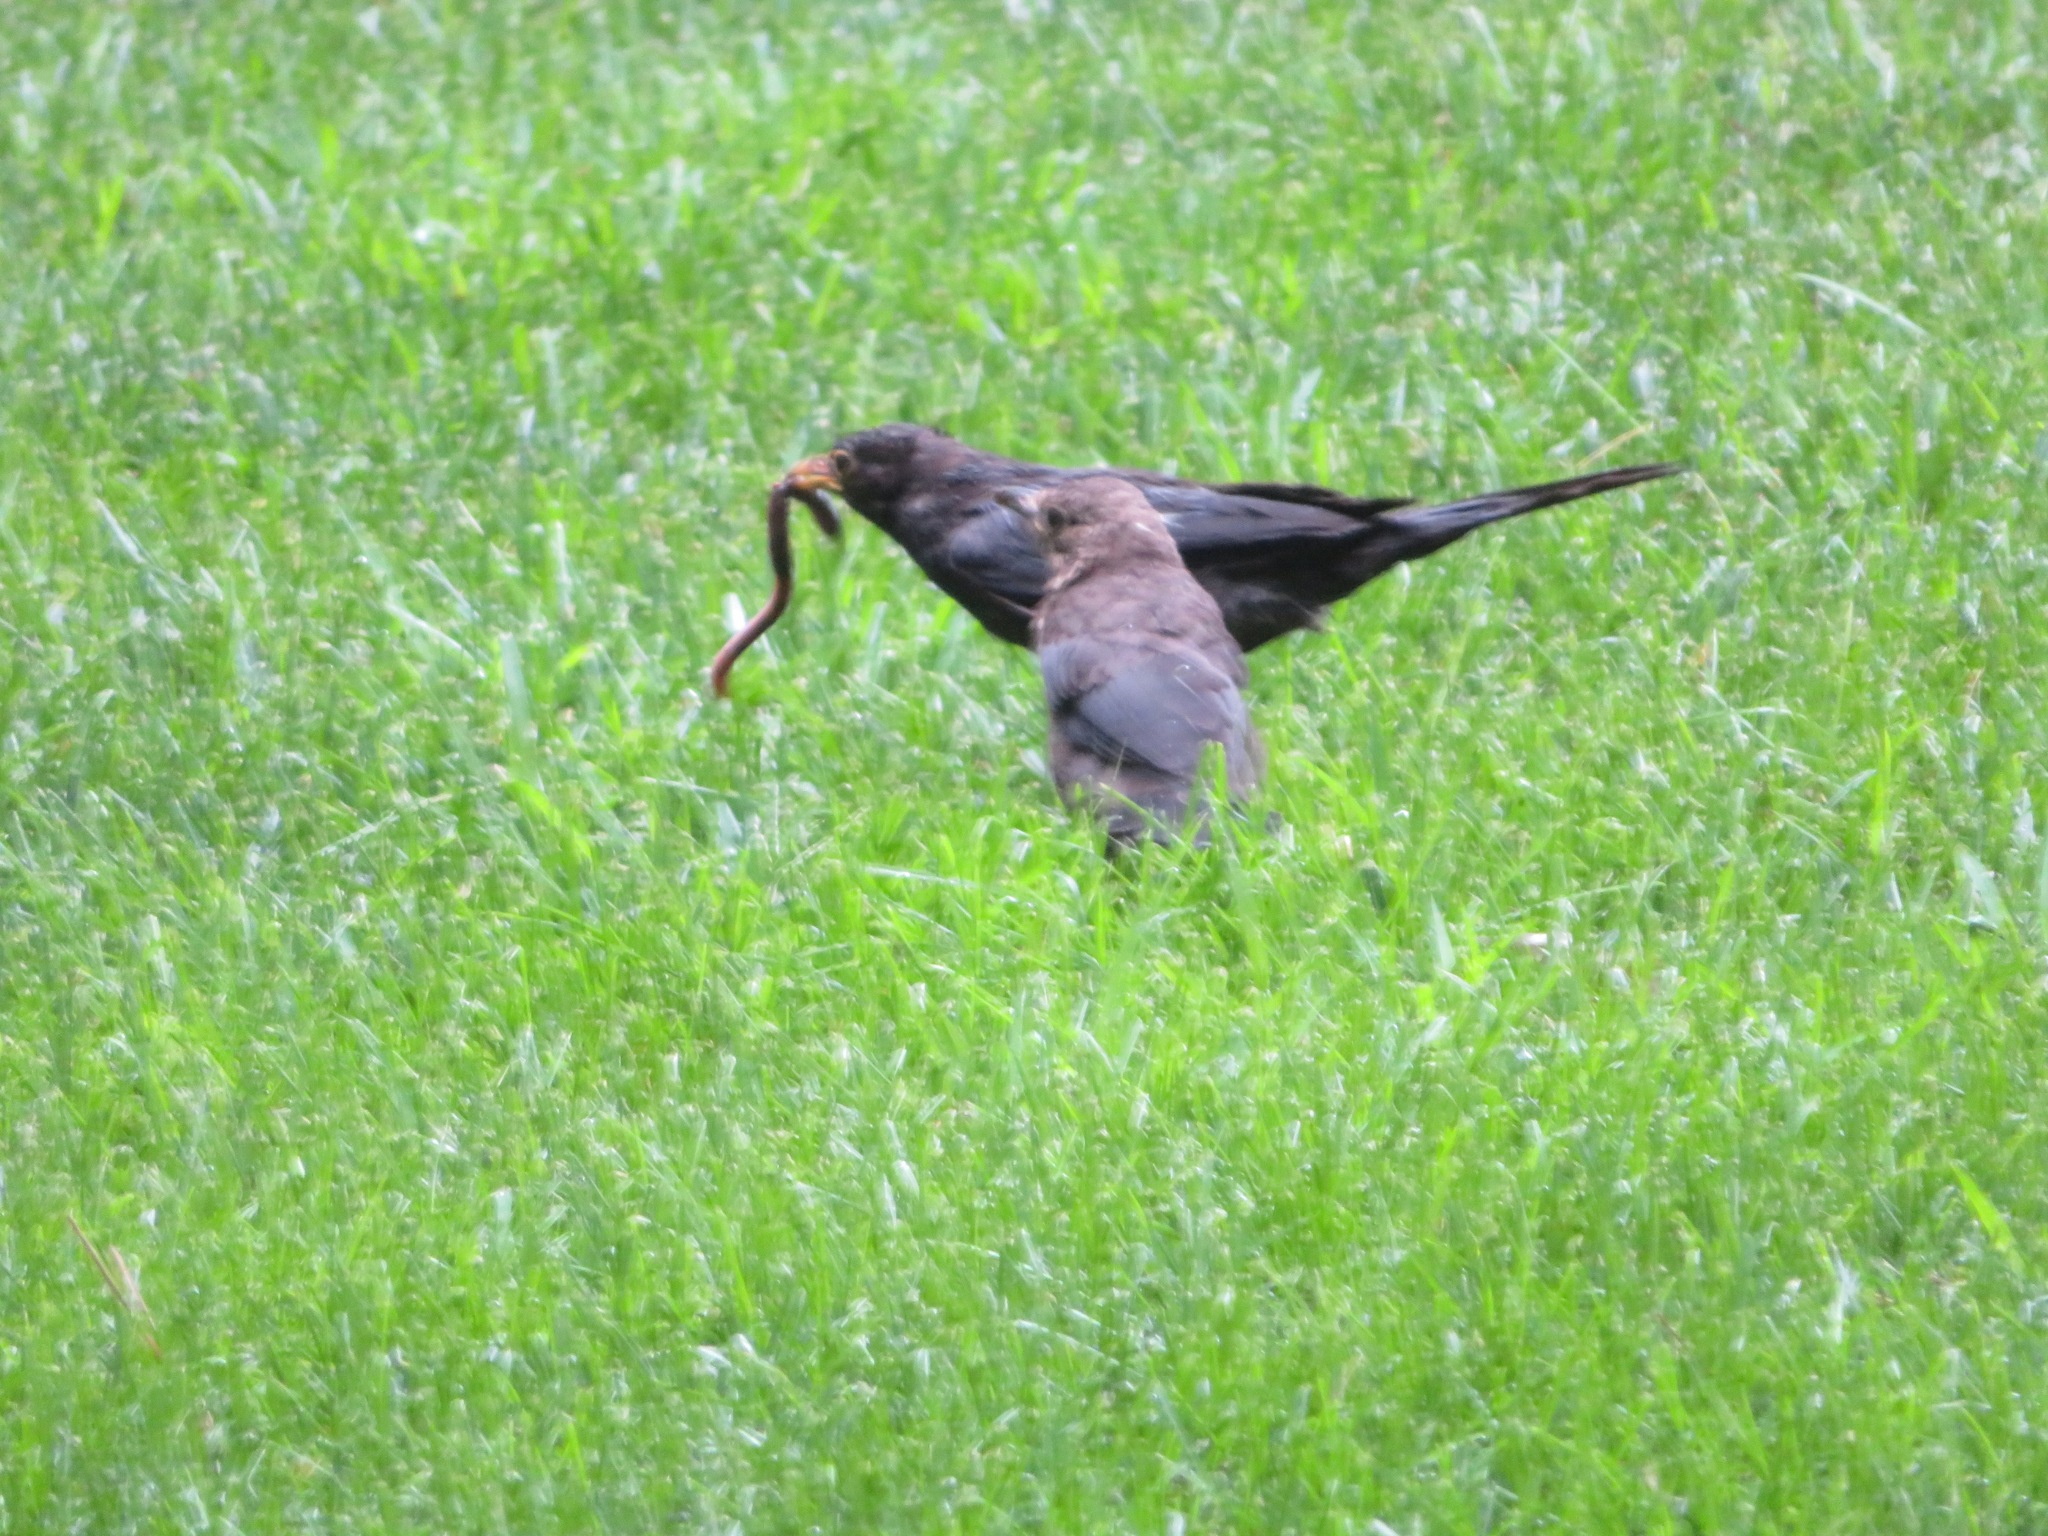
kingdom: Animalia
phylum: Chordata
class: Aves
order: Passeriformes
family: Turdidae
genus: Turdus
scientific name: Turdus mandarinus
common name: Chinese blackbird
